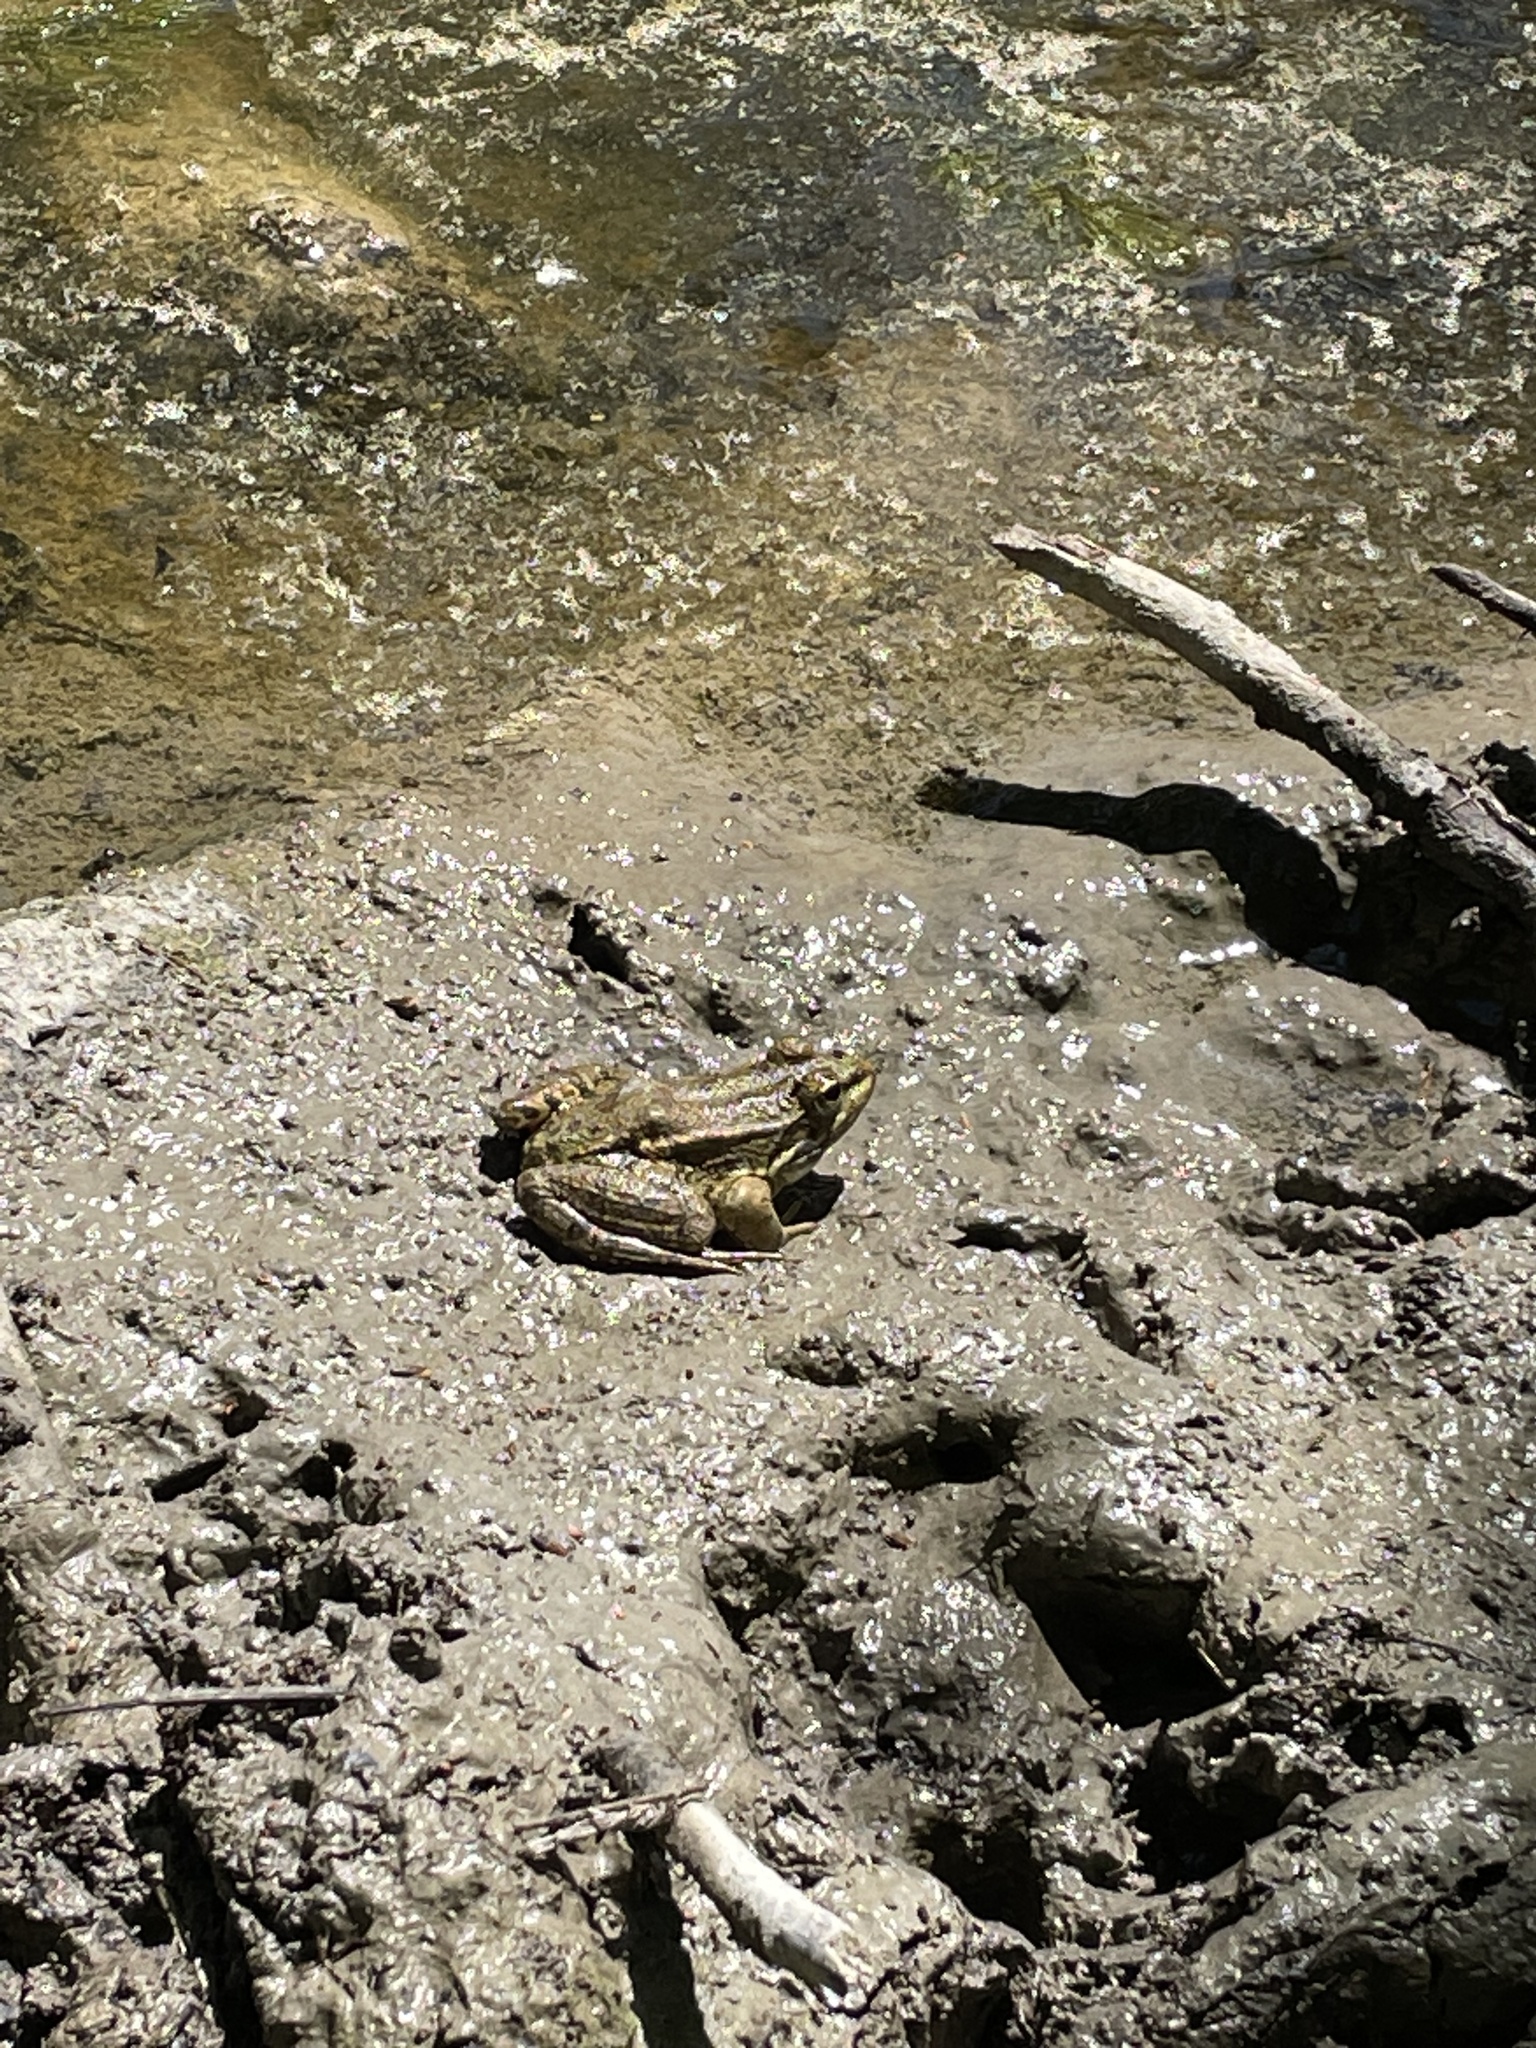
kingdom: Animalia
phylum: Chordata
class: Amphibia
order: Anura
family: Ranidae
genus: Pelophylax
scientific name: Pelophylax ridibundus
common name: Marsh frog
